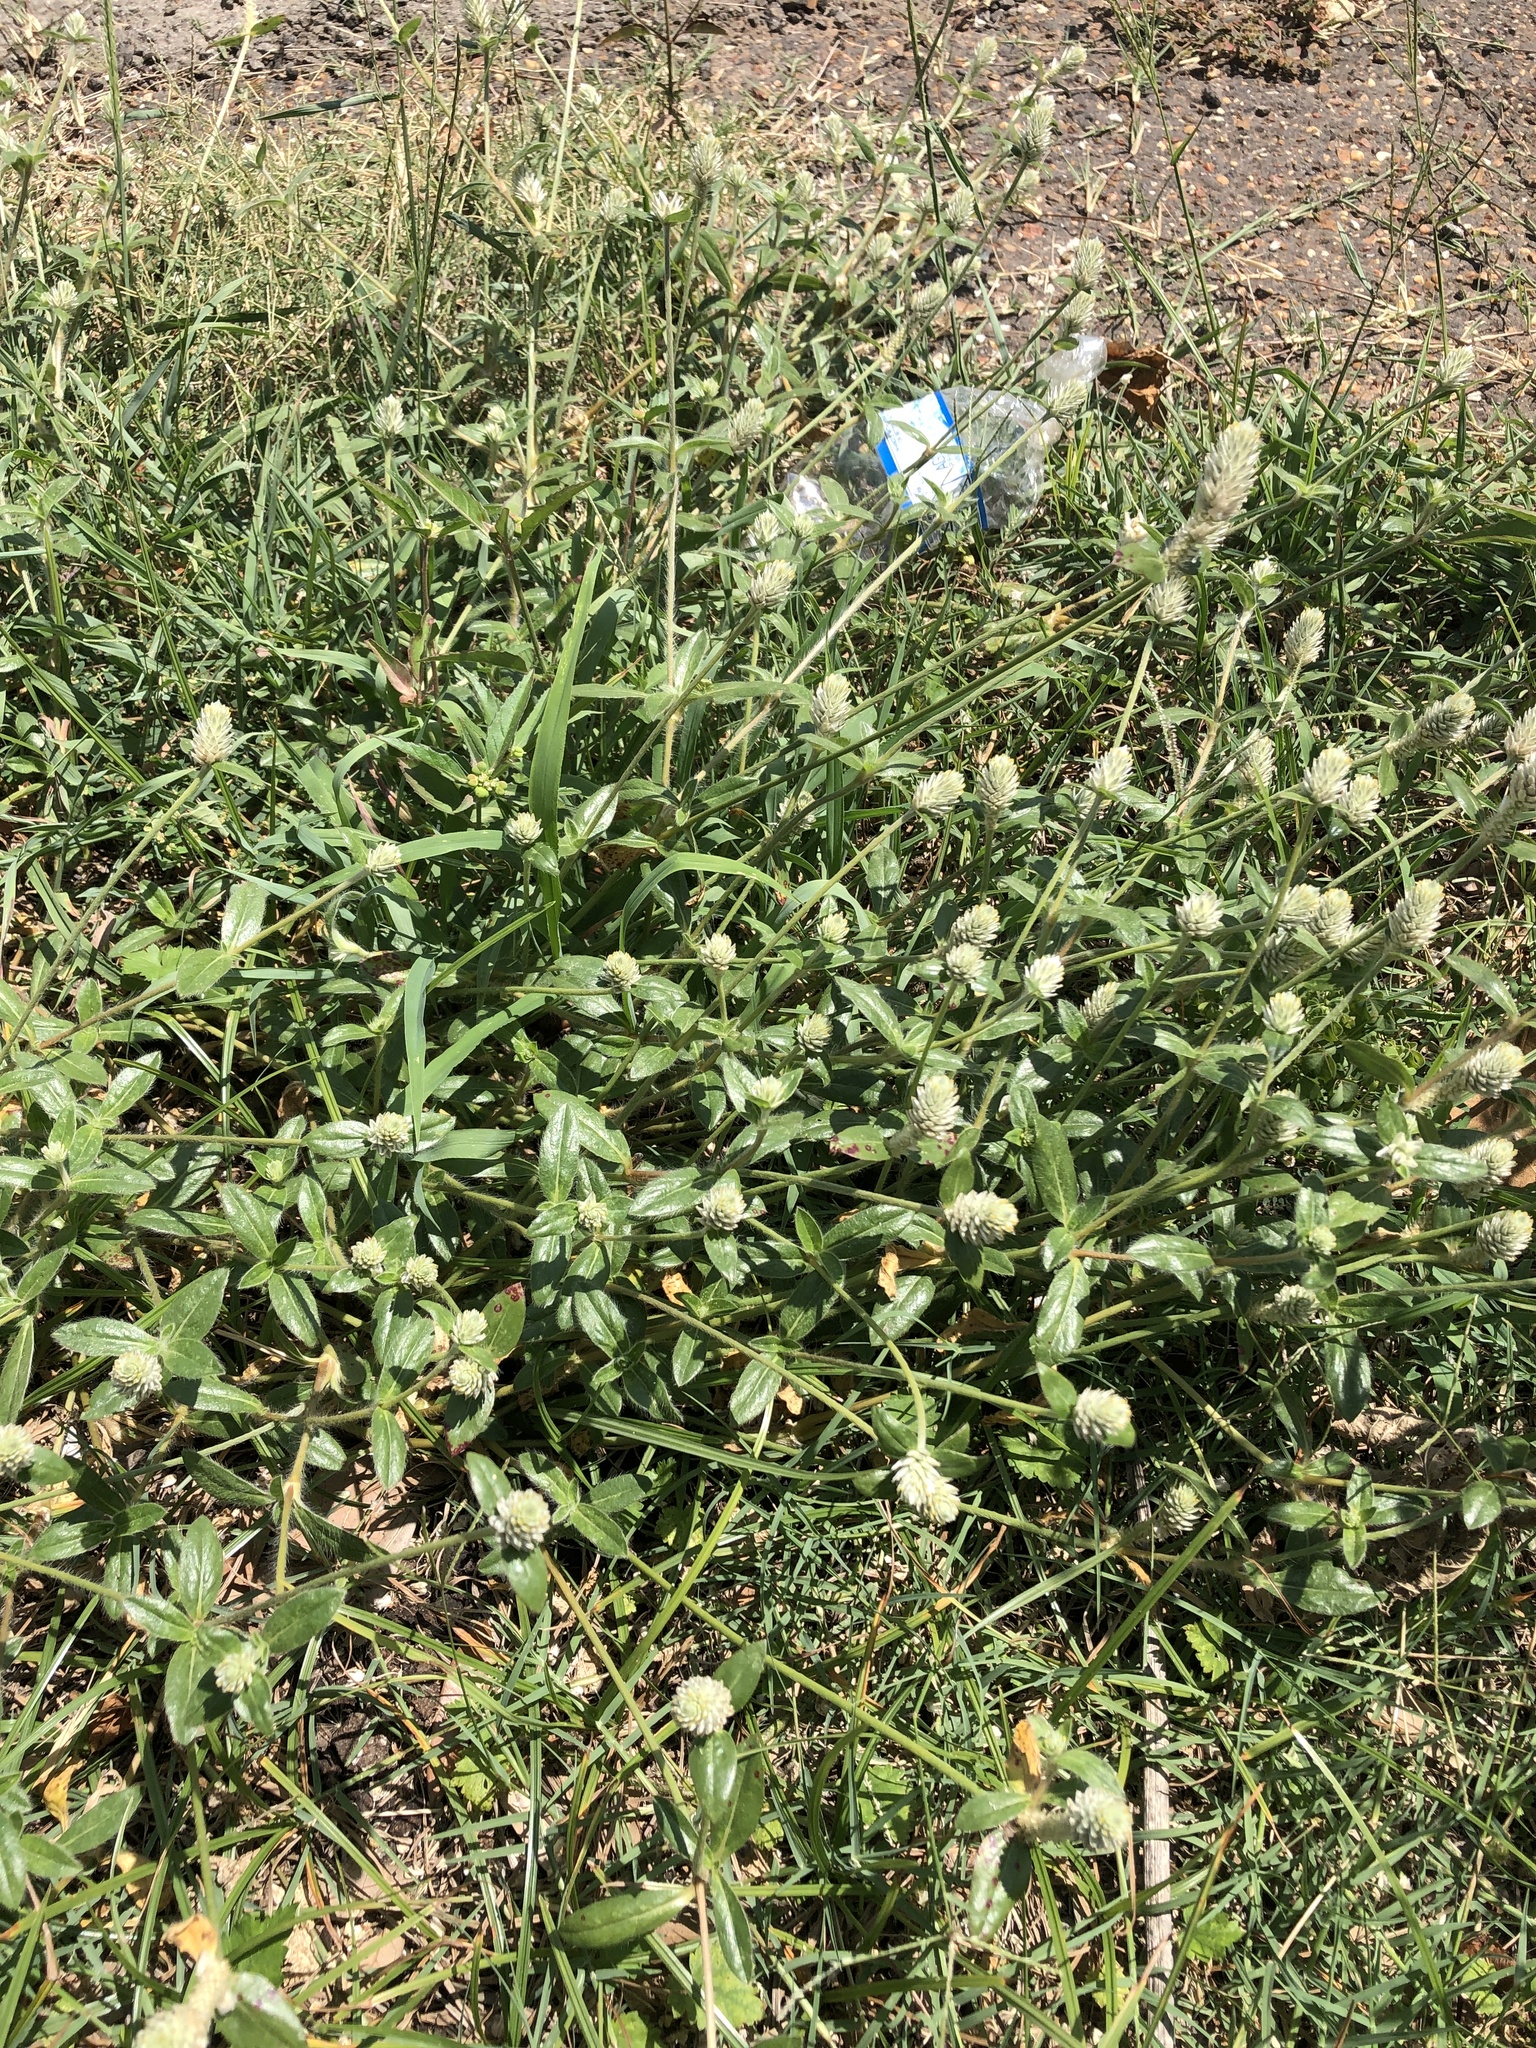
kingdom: Plantae
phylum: Tracheophyta
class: Magnoliopsida
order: Caryophyllales
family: Amaranthaceae
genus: Gomphrena
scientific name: Gomphrena serrata
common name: Arrasa con todo
